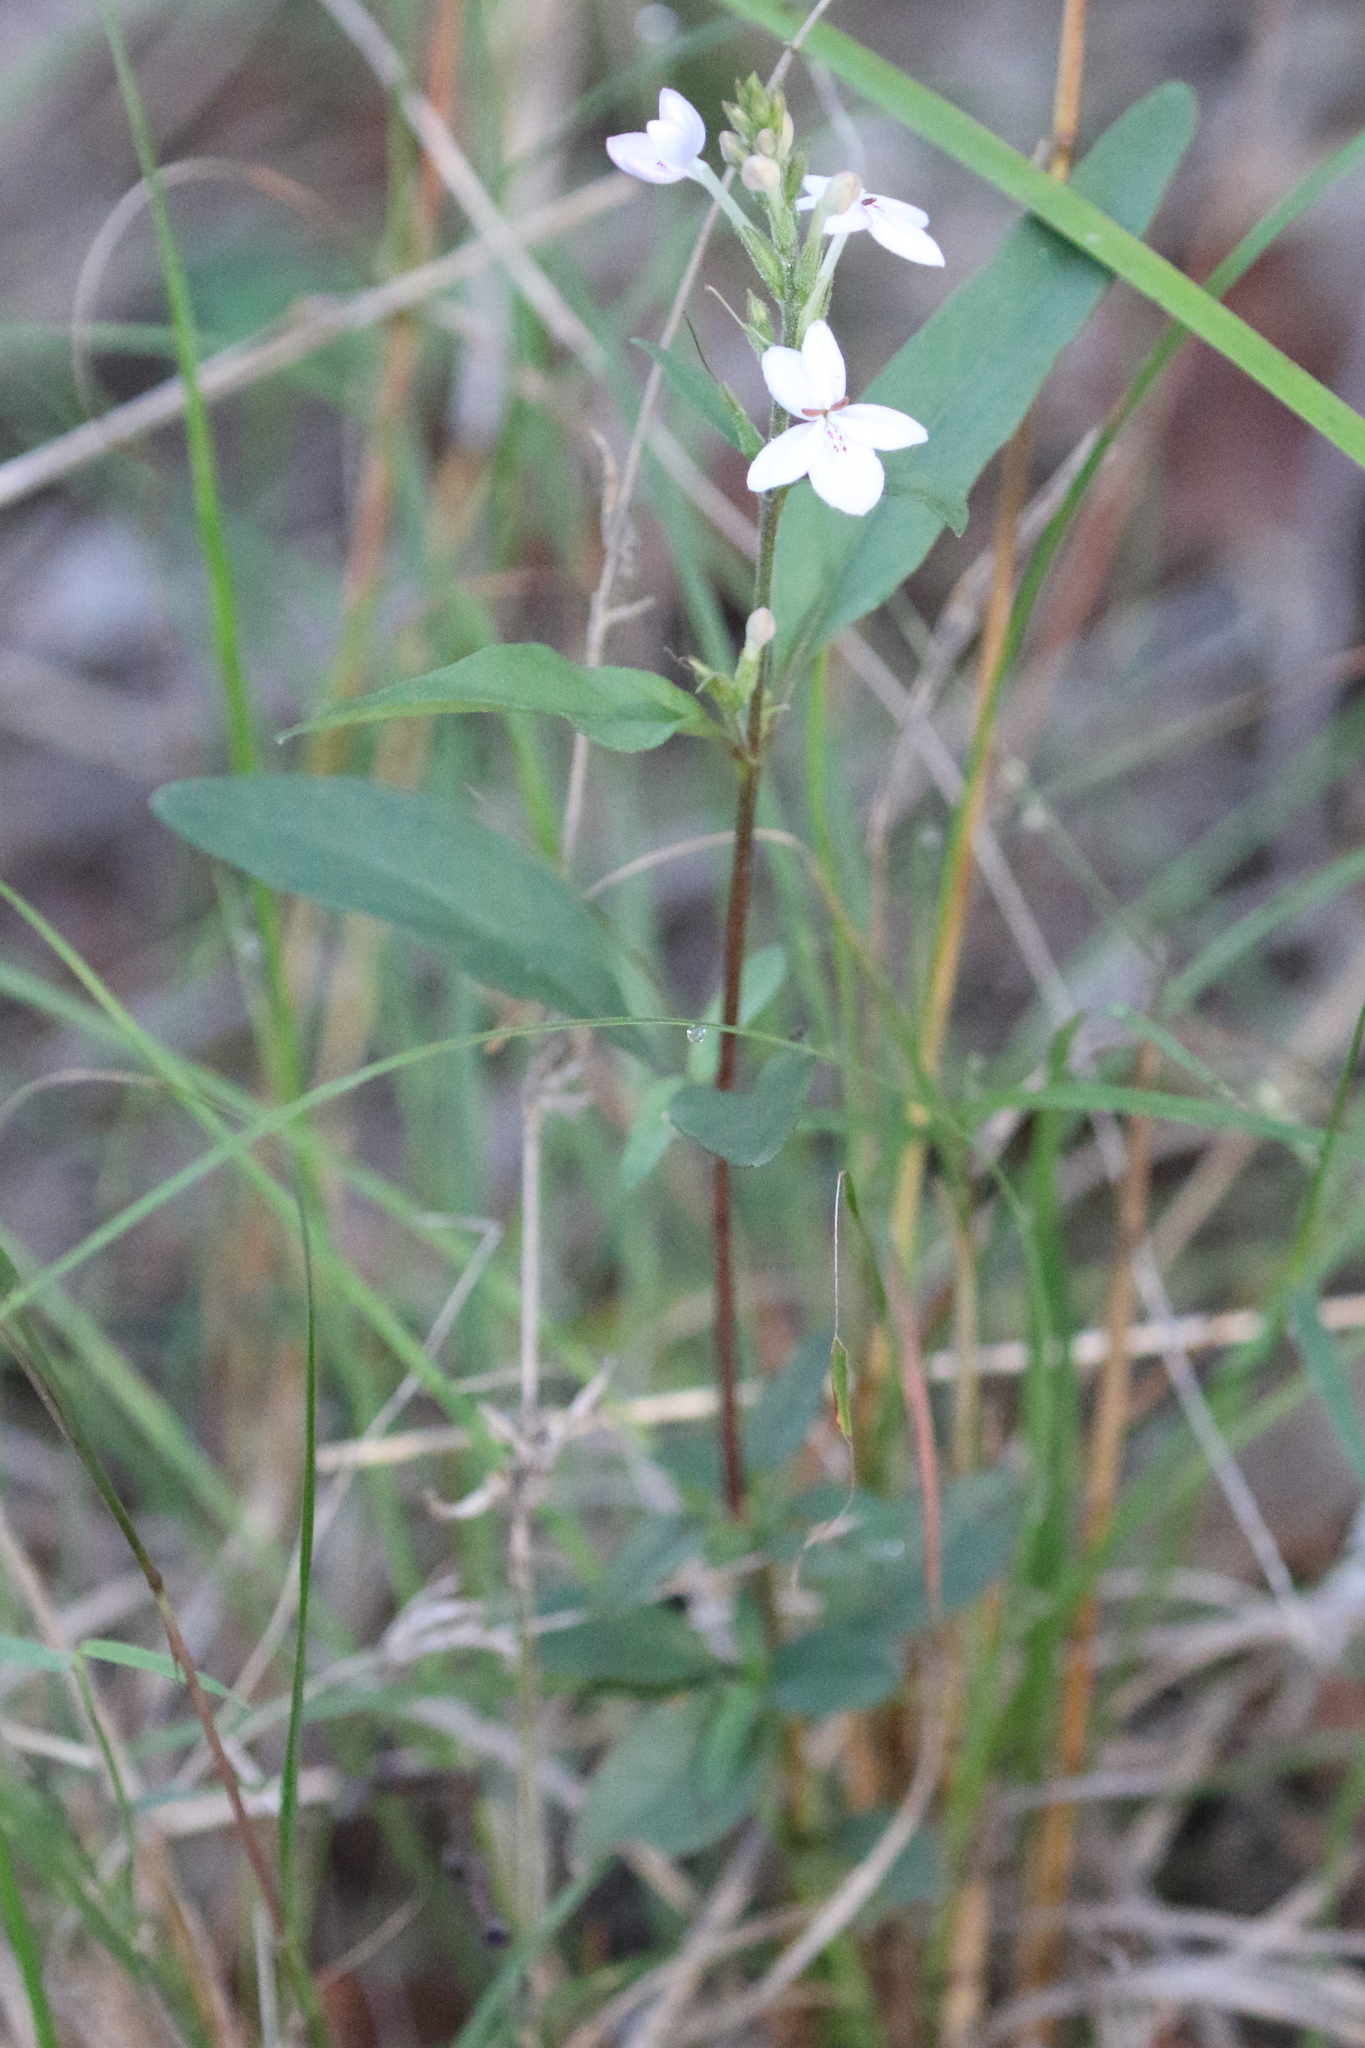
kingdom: Plantae
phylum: Tracheophyta
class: Magnoliopsida
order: Lamiales
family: Acanthaceae
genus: Pseuderanthemum
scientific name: Pseuderanthemum variabile
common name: Night and afternoon
